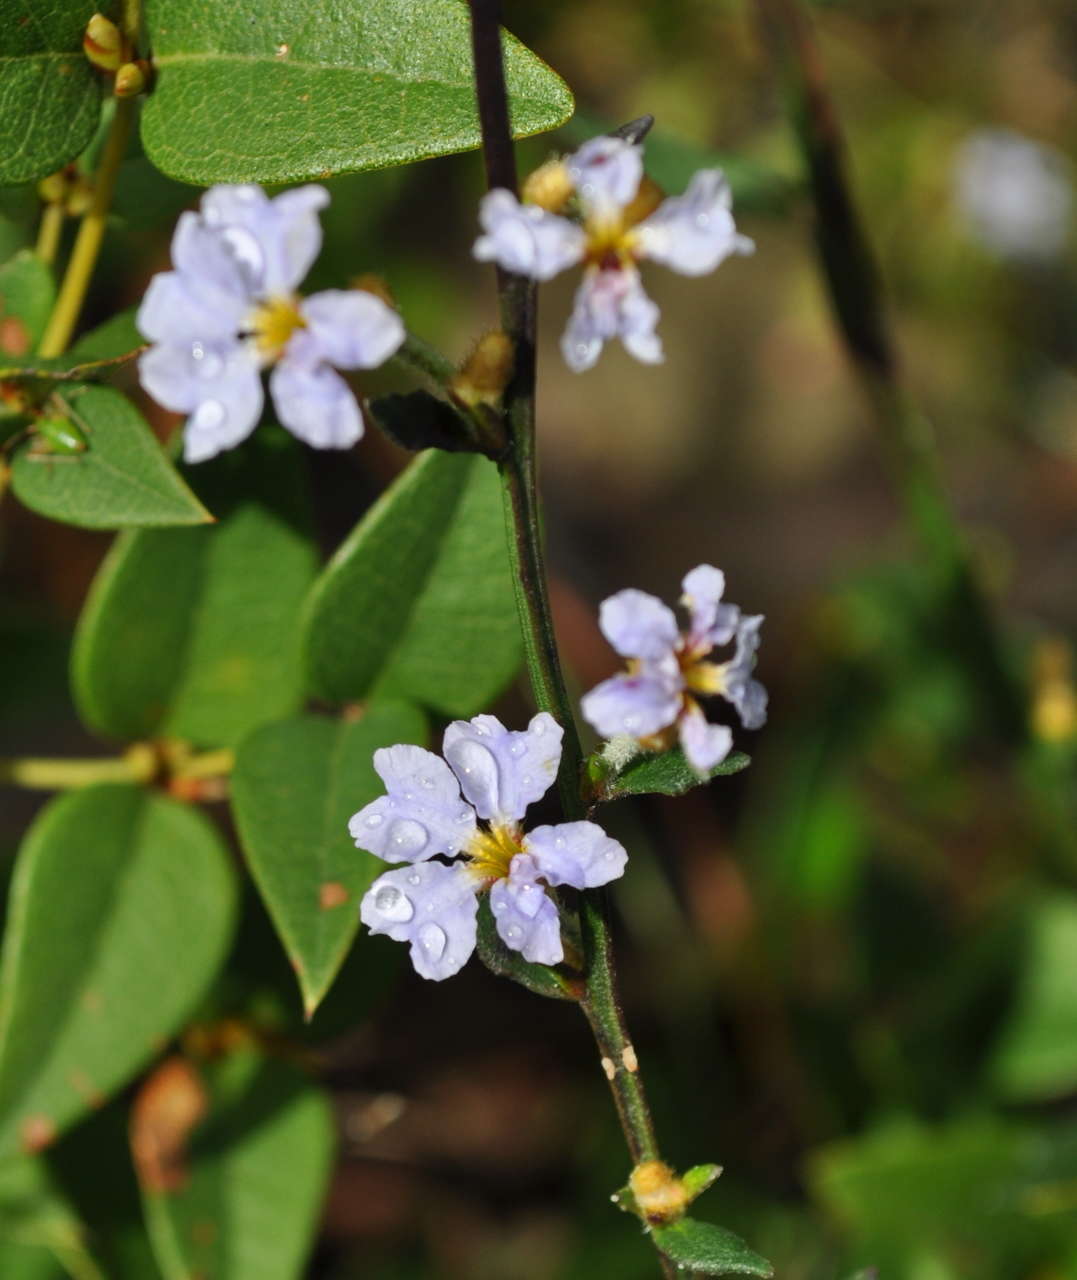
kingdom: Plantae
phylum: Tracheophyta
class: Magnoliopsida
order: Asterales
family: Goodeniaceae
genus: Dampiera
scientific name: Dampiera stricta
